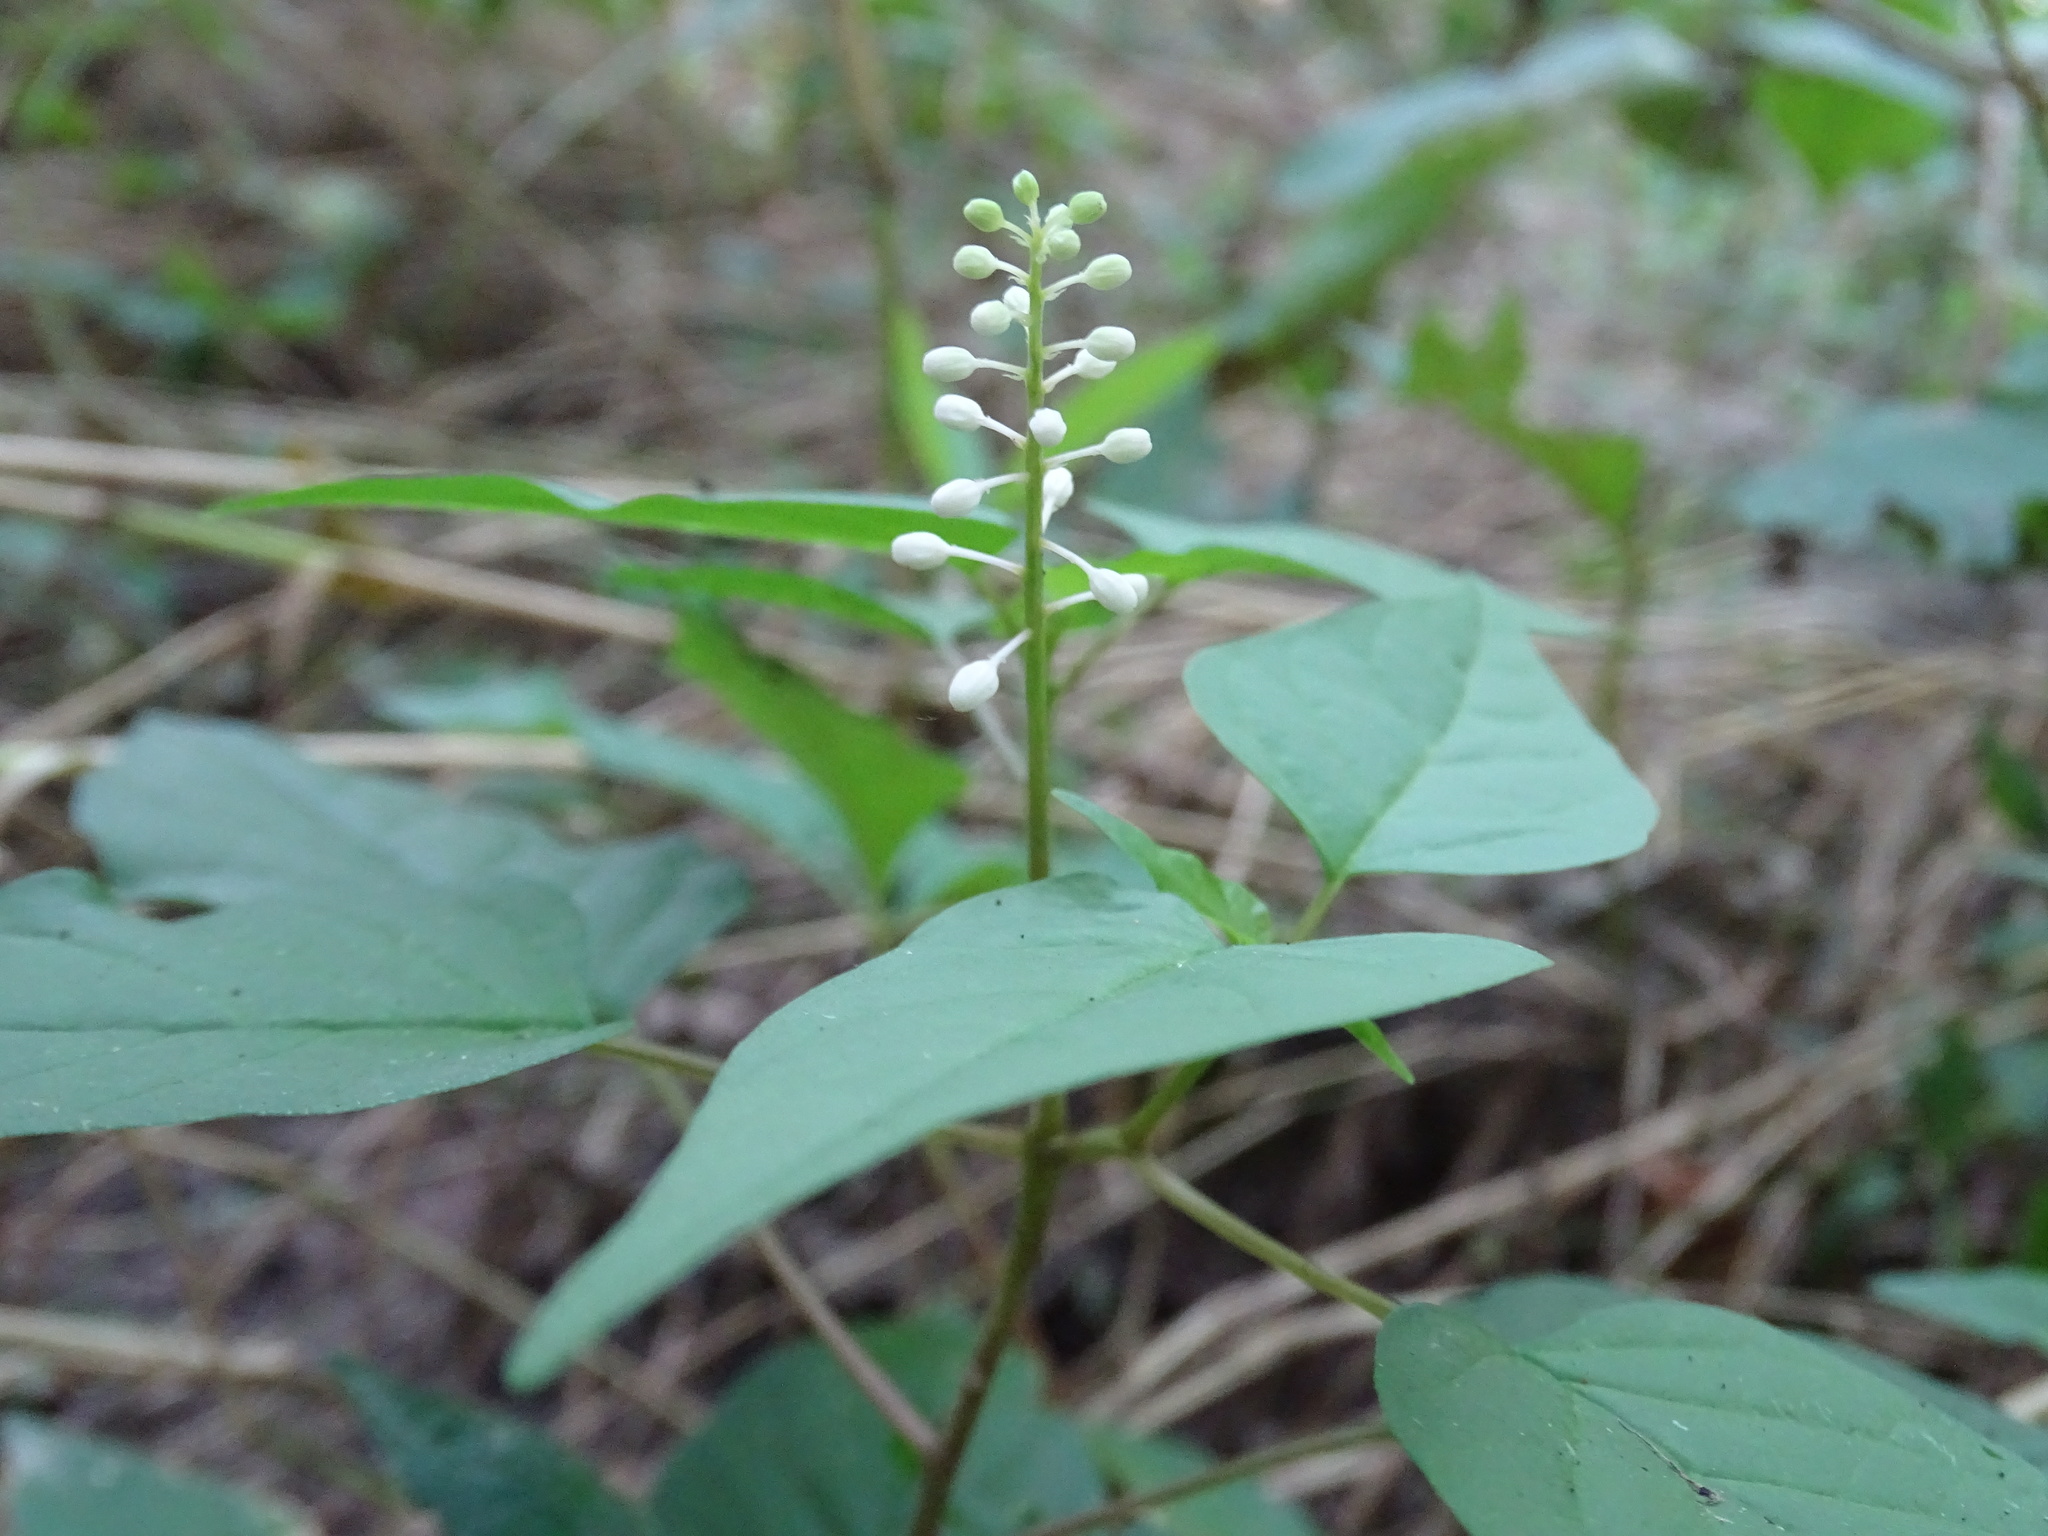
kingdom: Plantae
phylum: Tracheophyta
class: Magnoliopsida
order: Caryophyllales
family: Phytolaccaceae
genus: Rivina
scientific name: Rivina humilis
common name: Rougeplant
